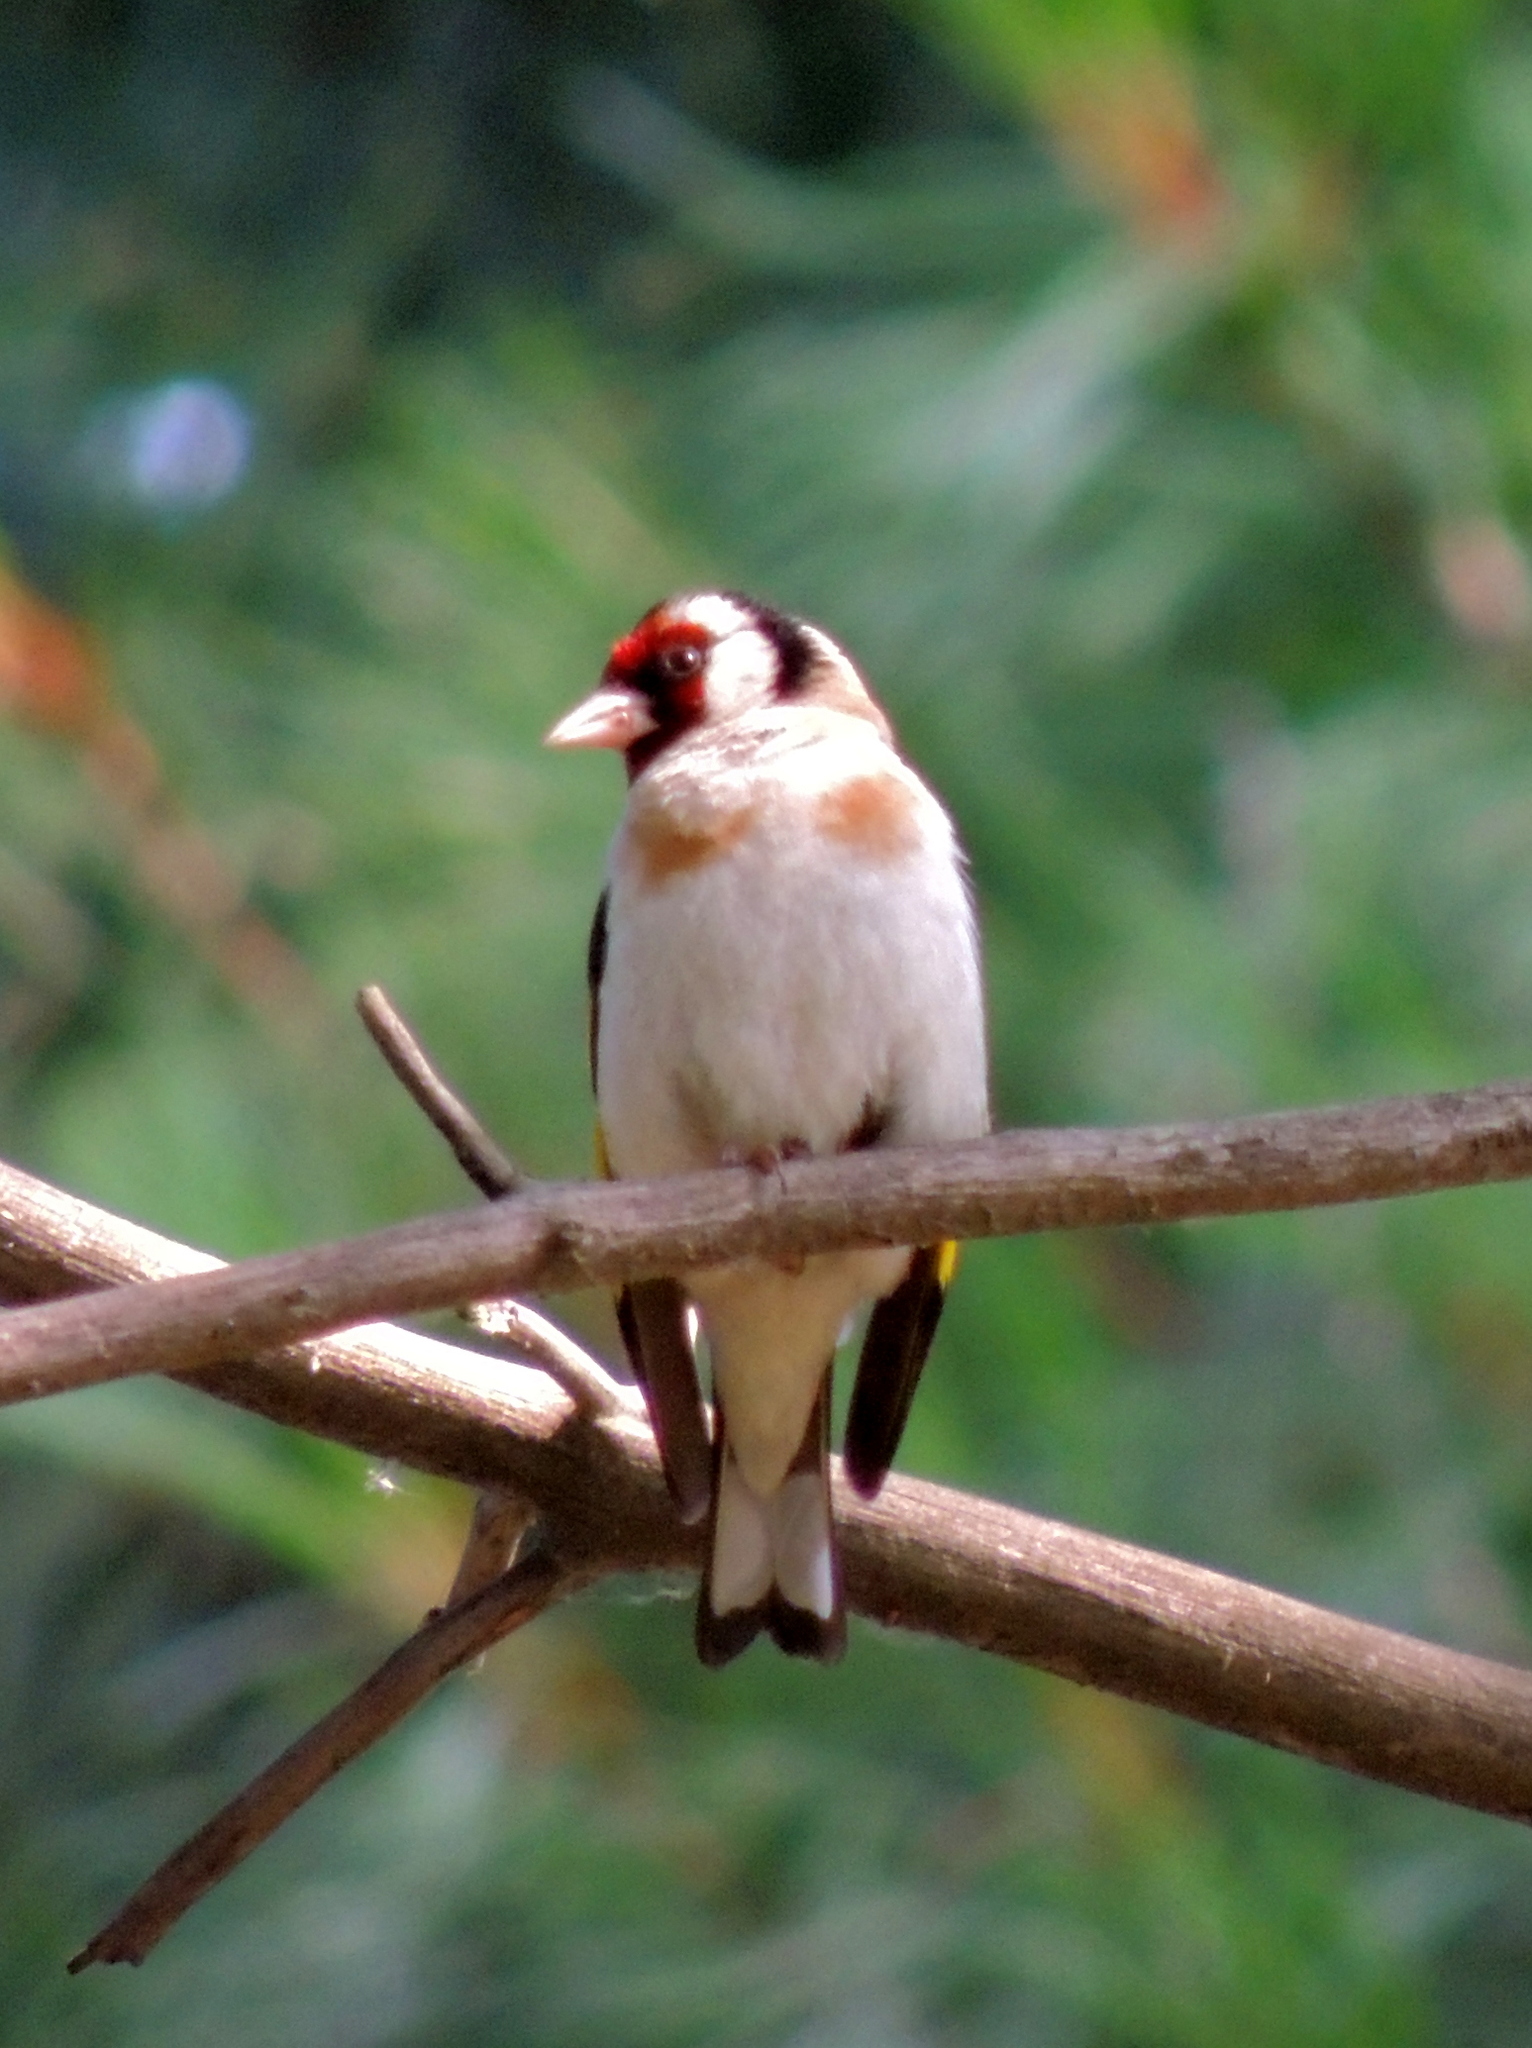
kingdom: Animalia
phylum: Chordata
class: Aves
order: Passeriformes
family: Fringillidae
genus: Carduelis
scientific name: Carduelis carduelis
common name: European goldfinch
